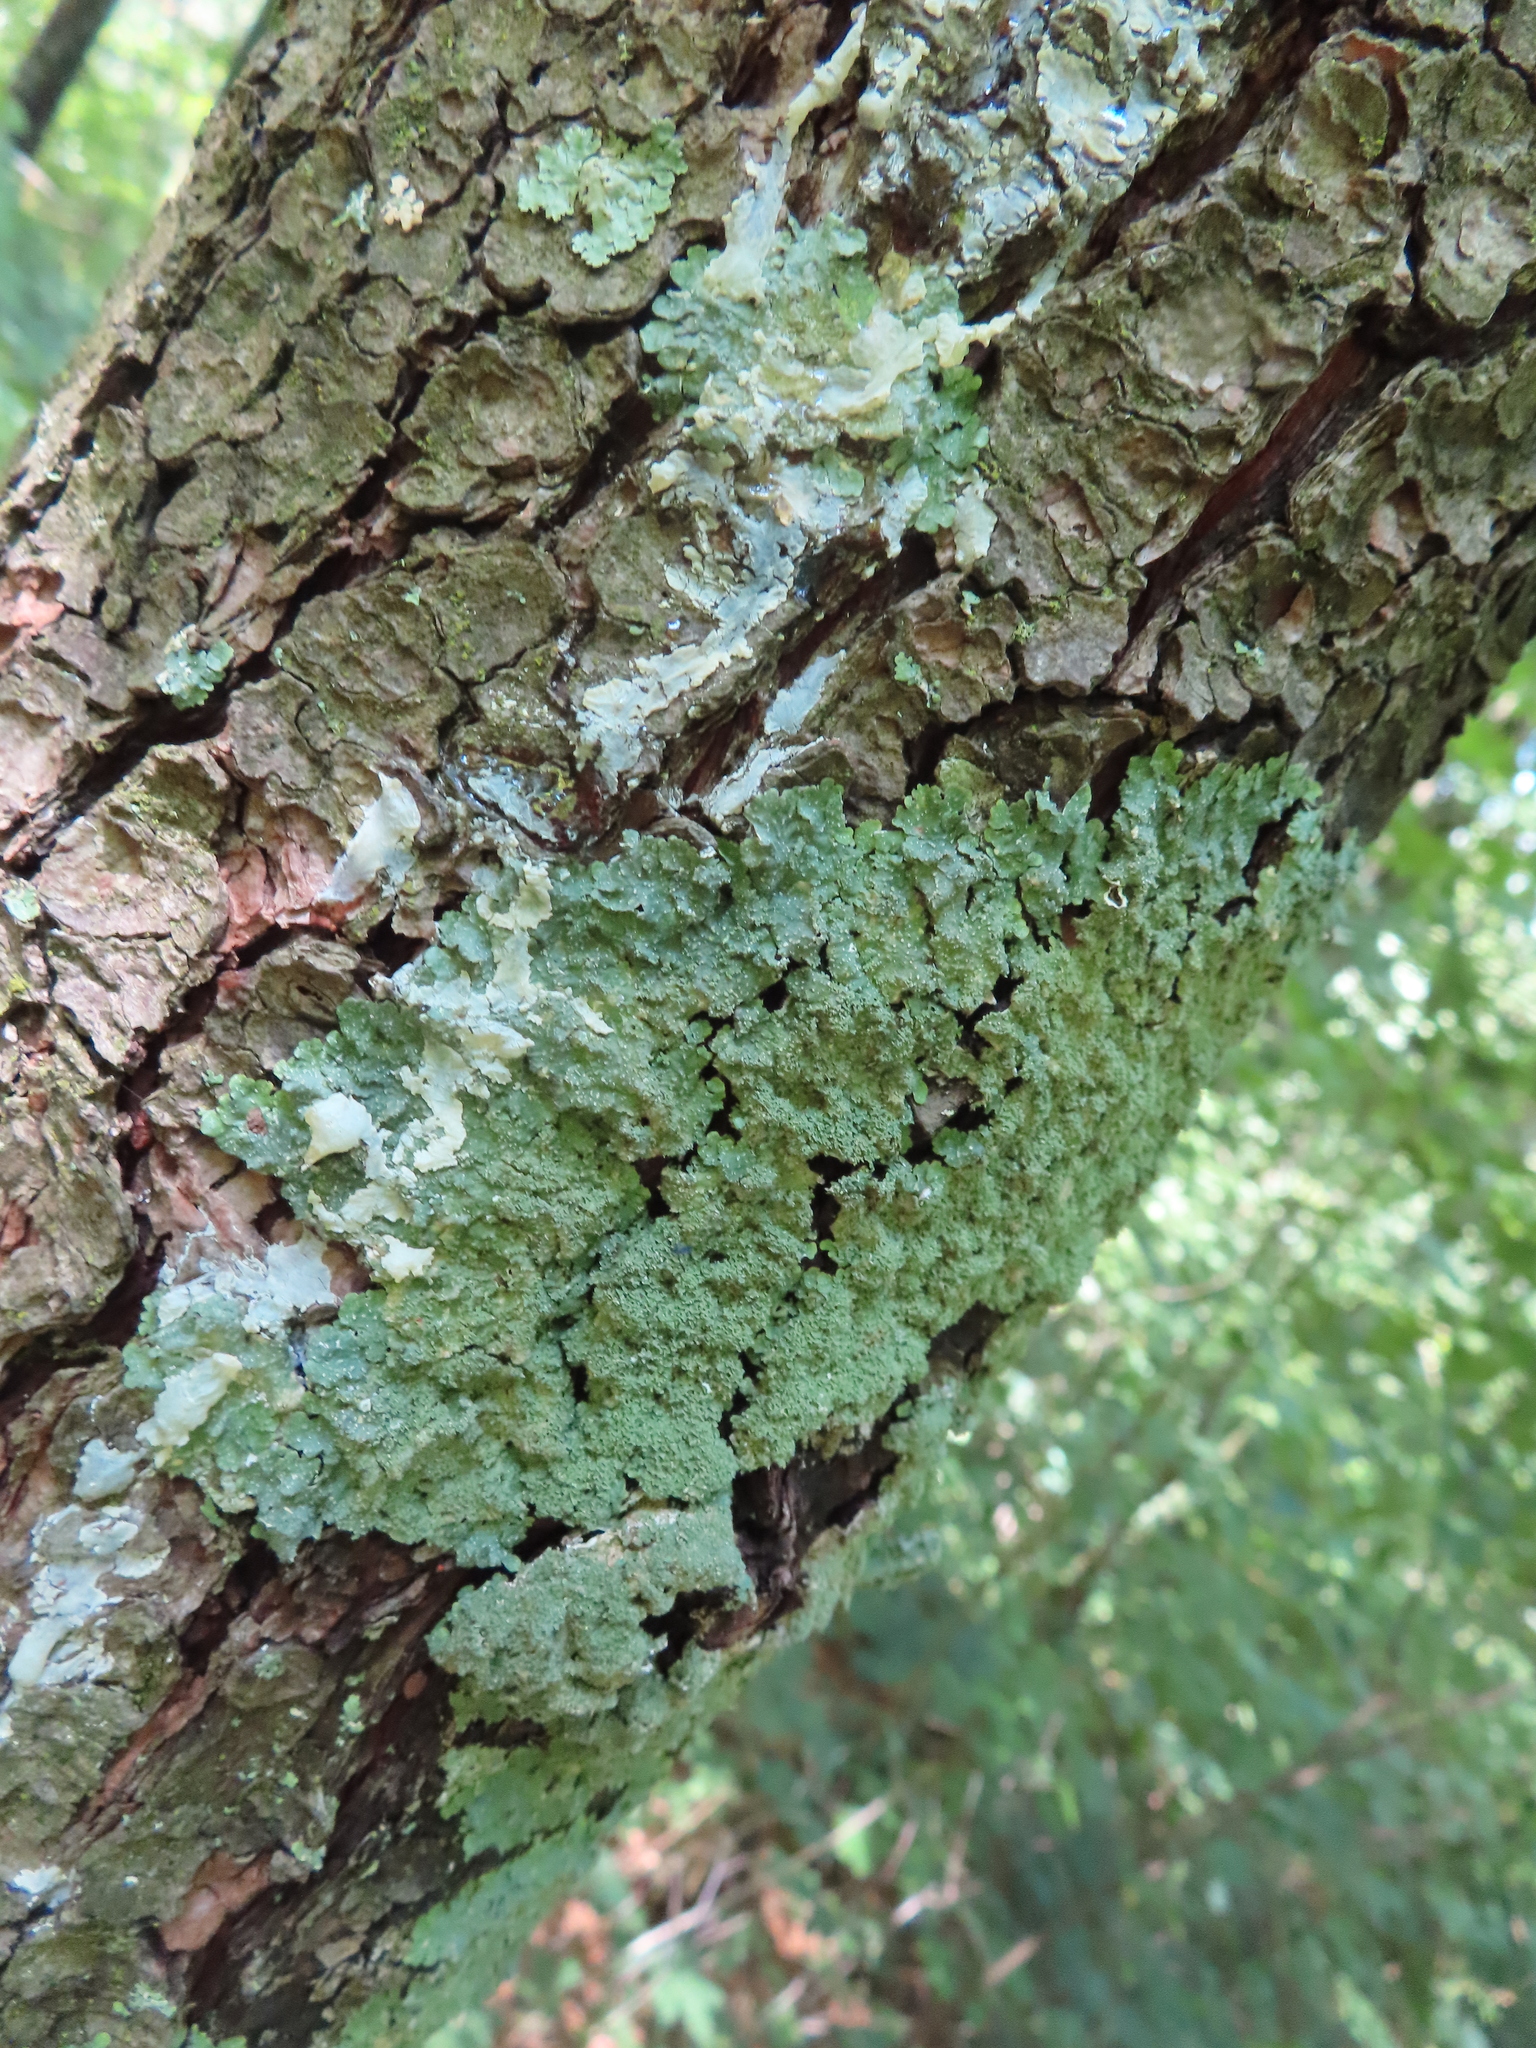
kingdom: Fungi
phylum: Ascomycota
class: Lecanoromycetes
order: Lecanorales
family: Parmeliaceae
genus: Punctelia
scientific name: Punctelia rudecta
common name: Rough speckled shield lichen
